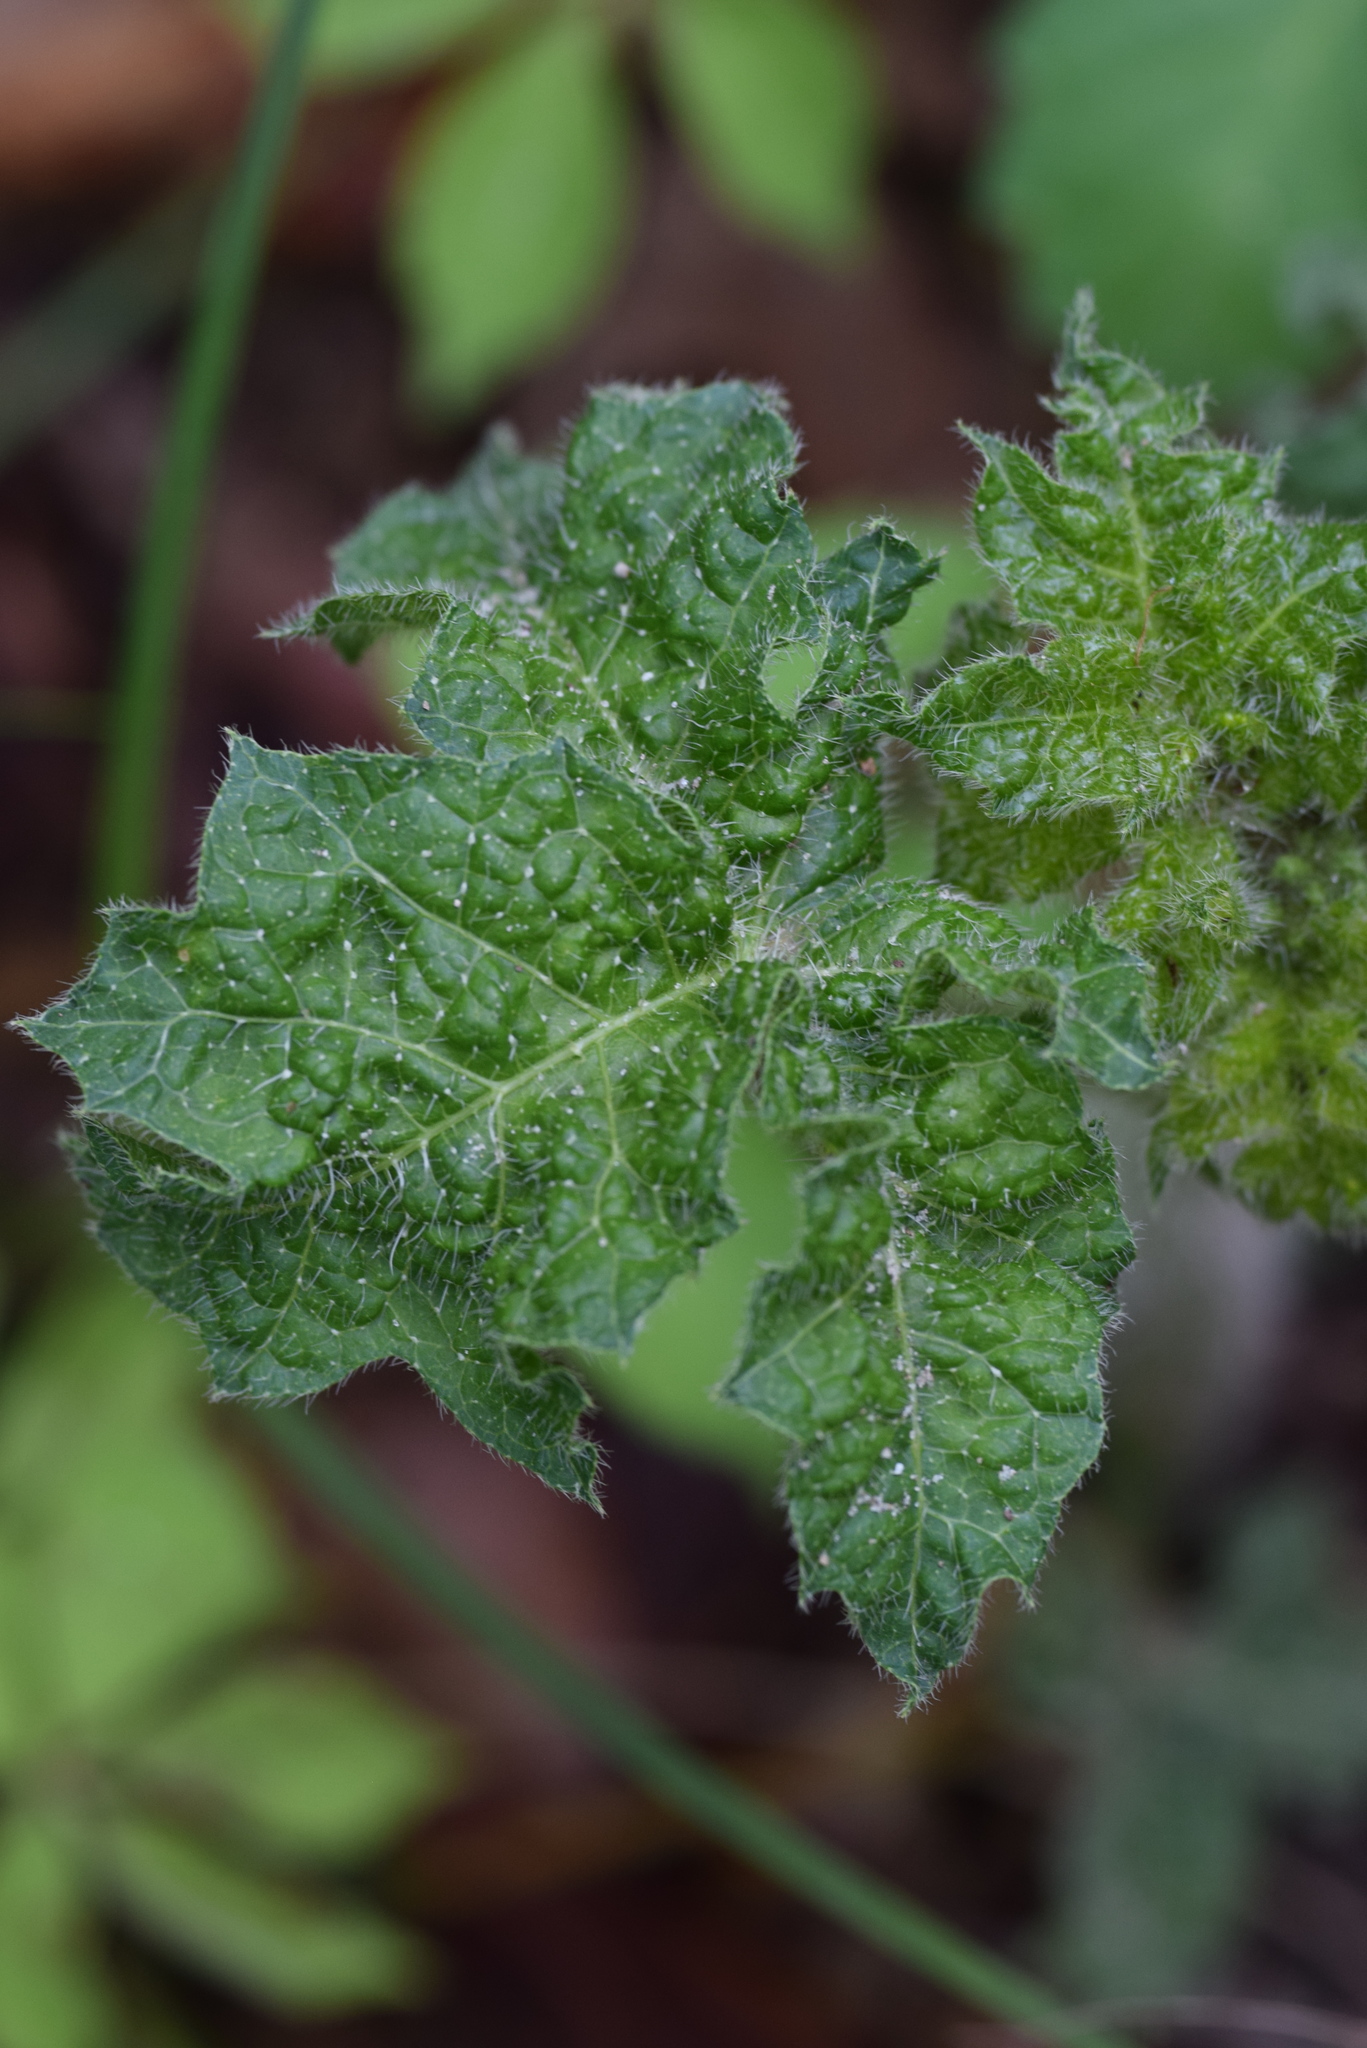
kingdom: Plantae
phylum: Tracheophyta
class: Magnoliopsida
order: Malpighiales
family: Euphorbiaceae
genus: Cnidoscolus
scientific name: Cnidoscolus texanus
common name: Texas bull-nettle
